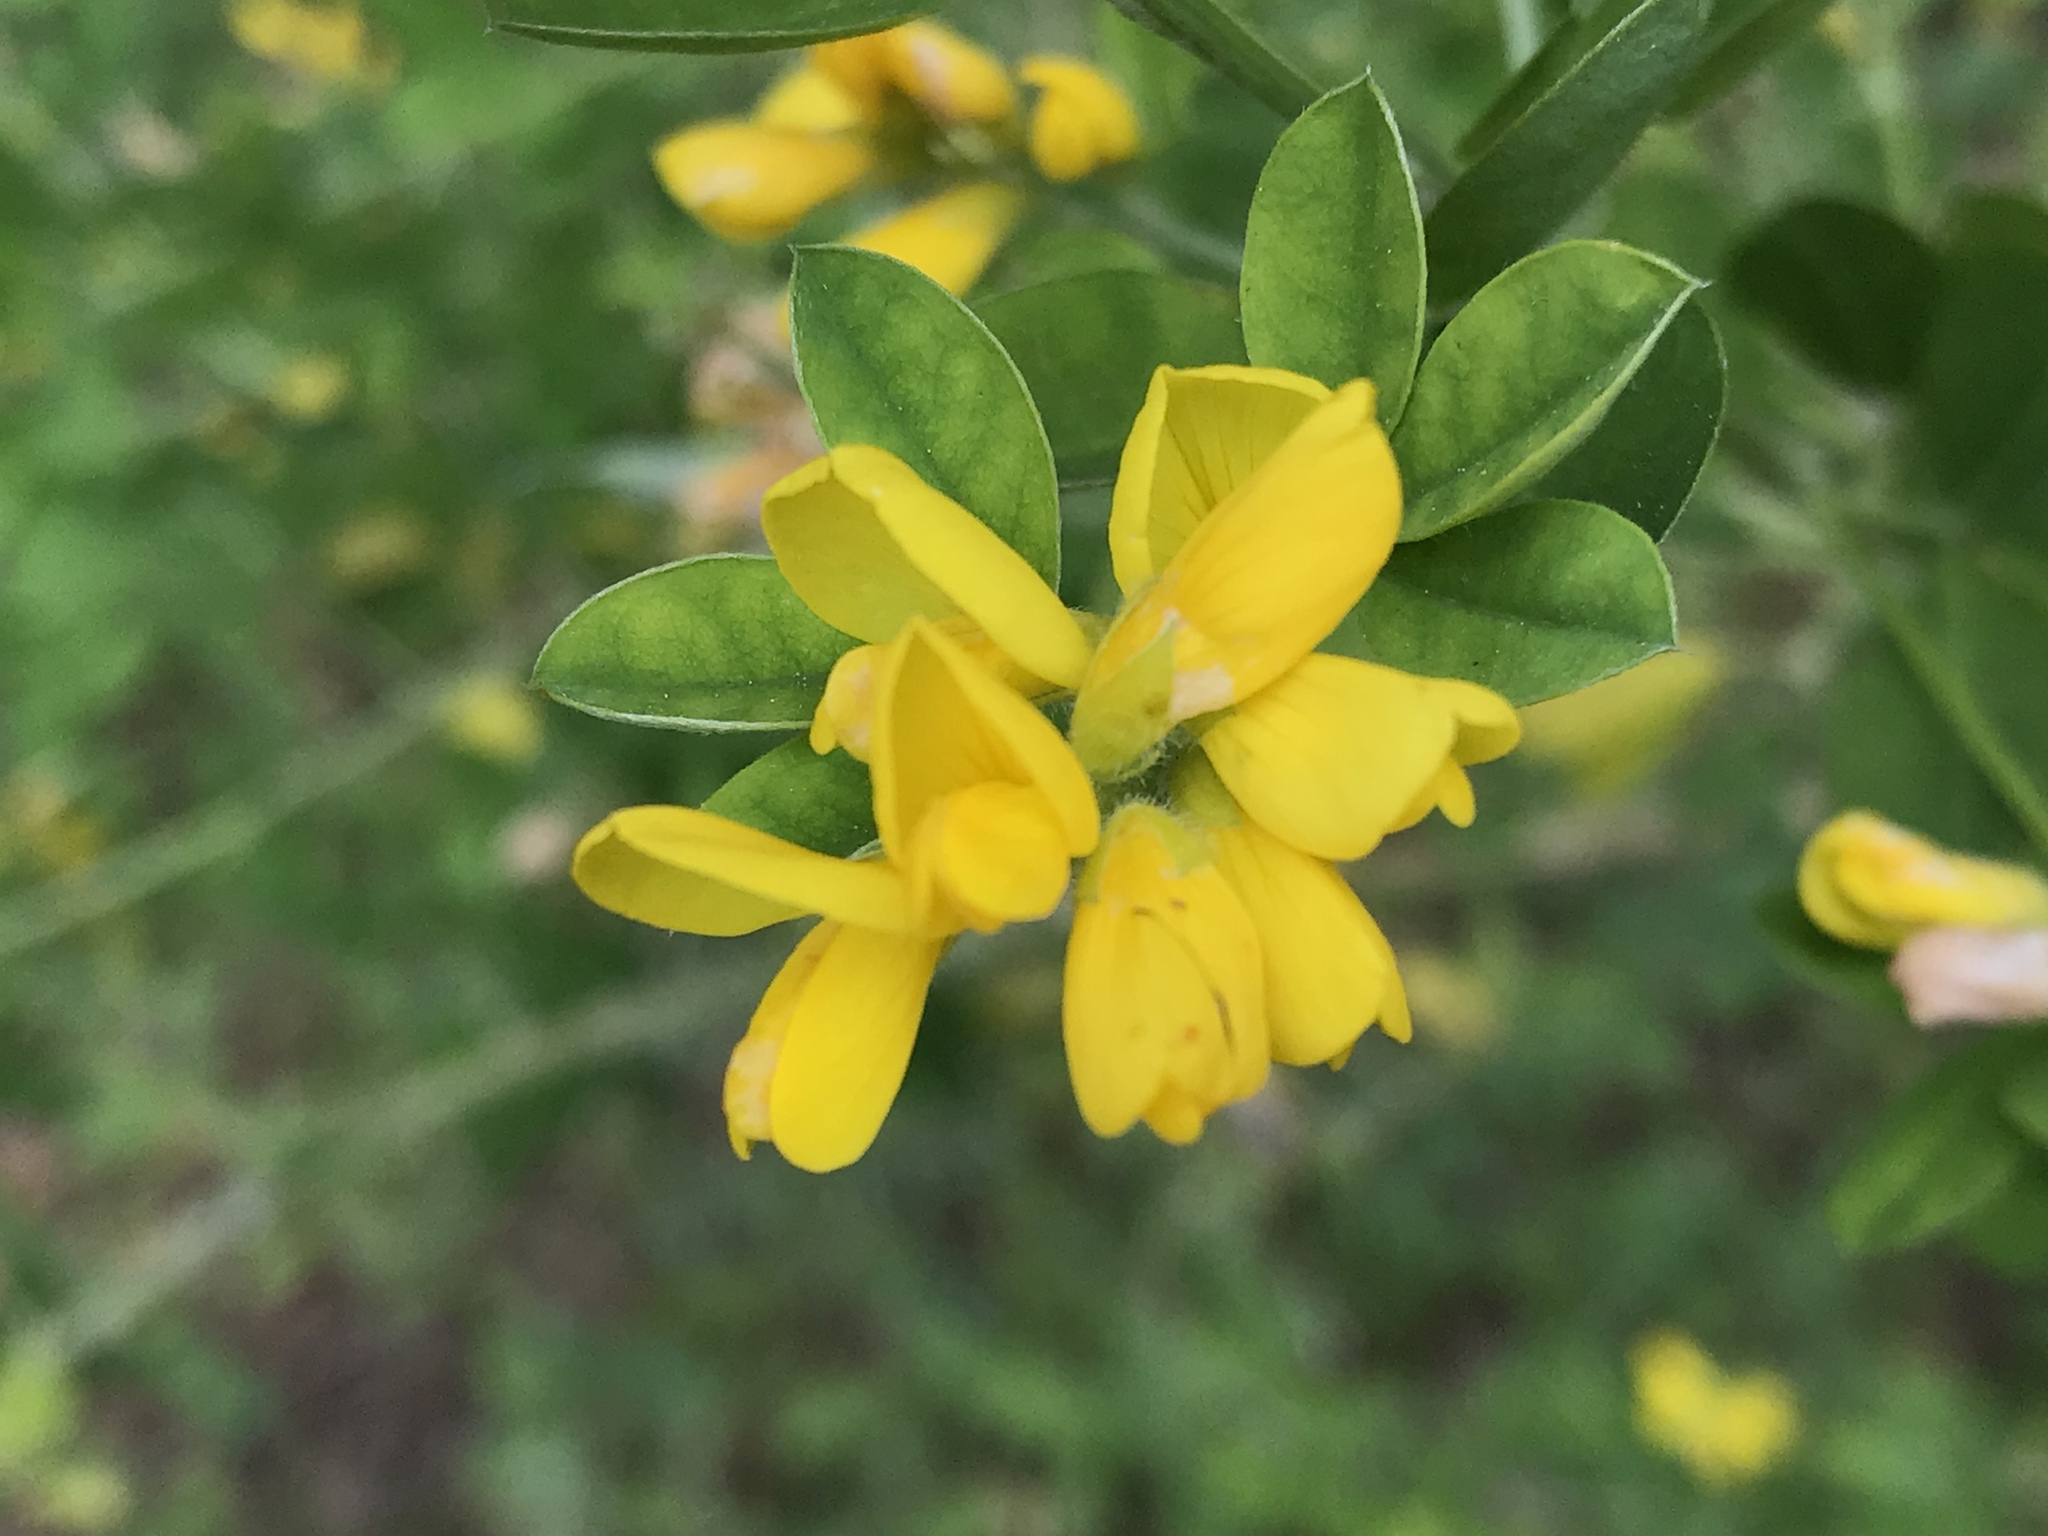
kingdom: Plantae
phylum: Tracheophyta
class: Magnoliopsida
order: Fabales
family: Fabaceae
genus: Genista
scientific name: Genista monspessulana
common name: Montpellier broom
